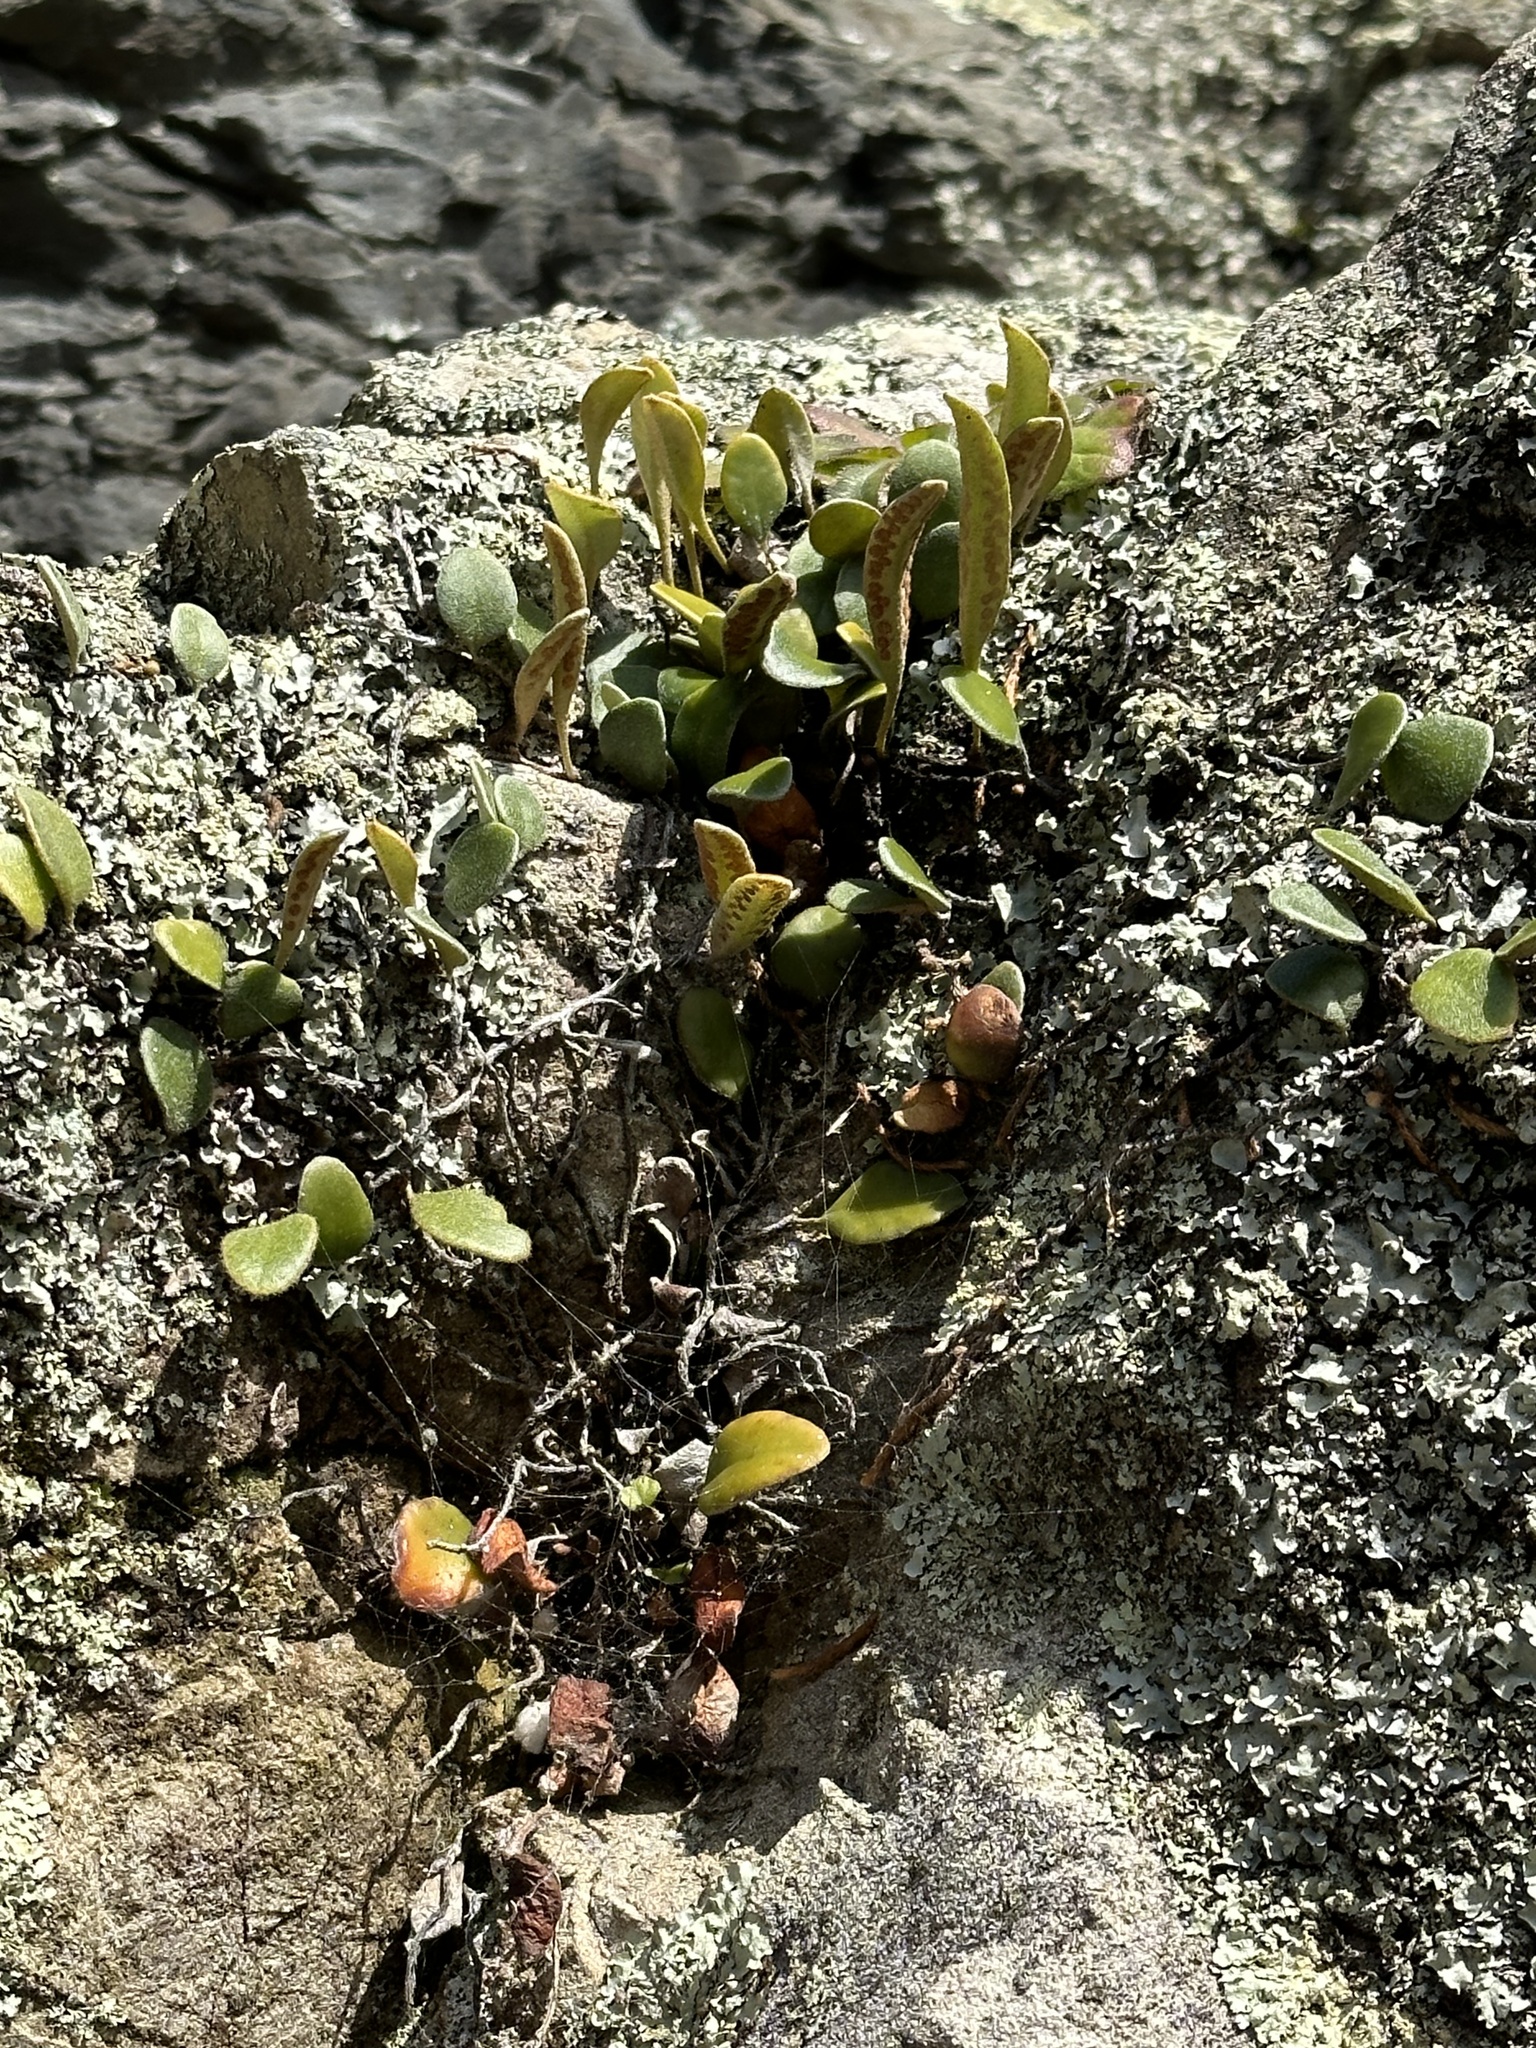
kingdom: Plantae
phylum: Tracheophyta
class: Polypodiopsida
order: Polypodiales
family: Polypodiaceae
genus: Pyrrosia
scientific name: Pyrrosia eleagnifolia
